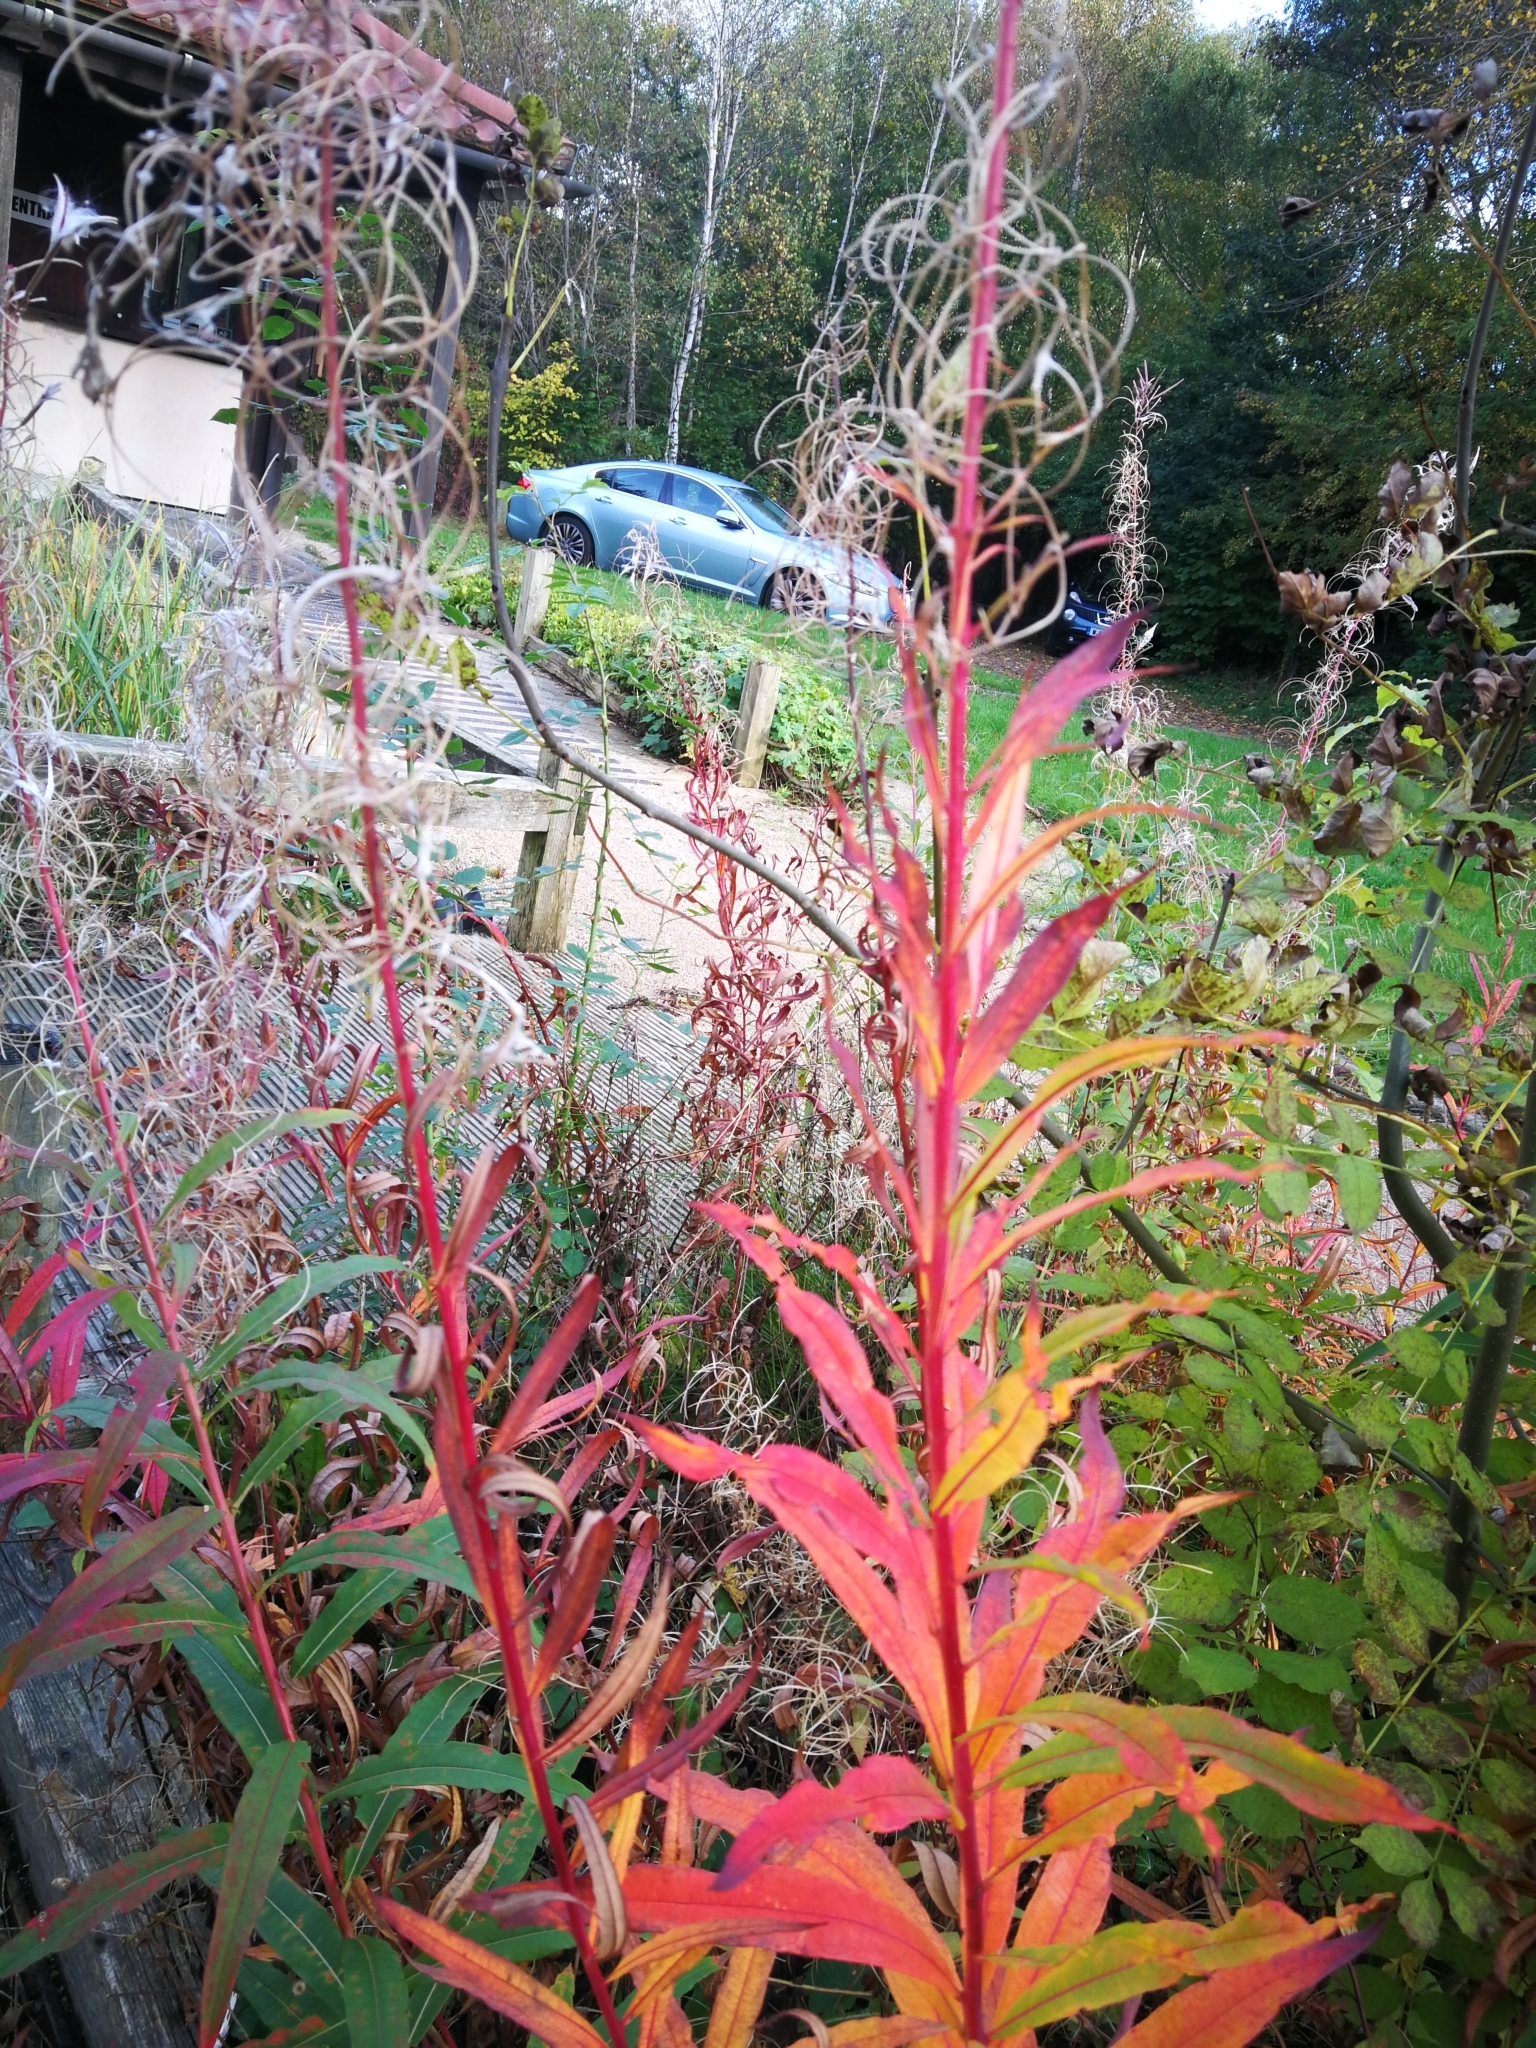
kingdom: Plantae
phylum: Tracheophyta
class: Magnoliopsida
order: Myrtales
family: Onagraceae
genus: Chamaenerion
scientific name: Chamaenerion angustifolium
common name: Fireweed
